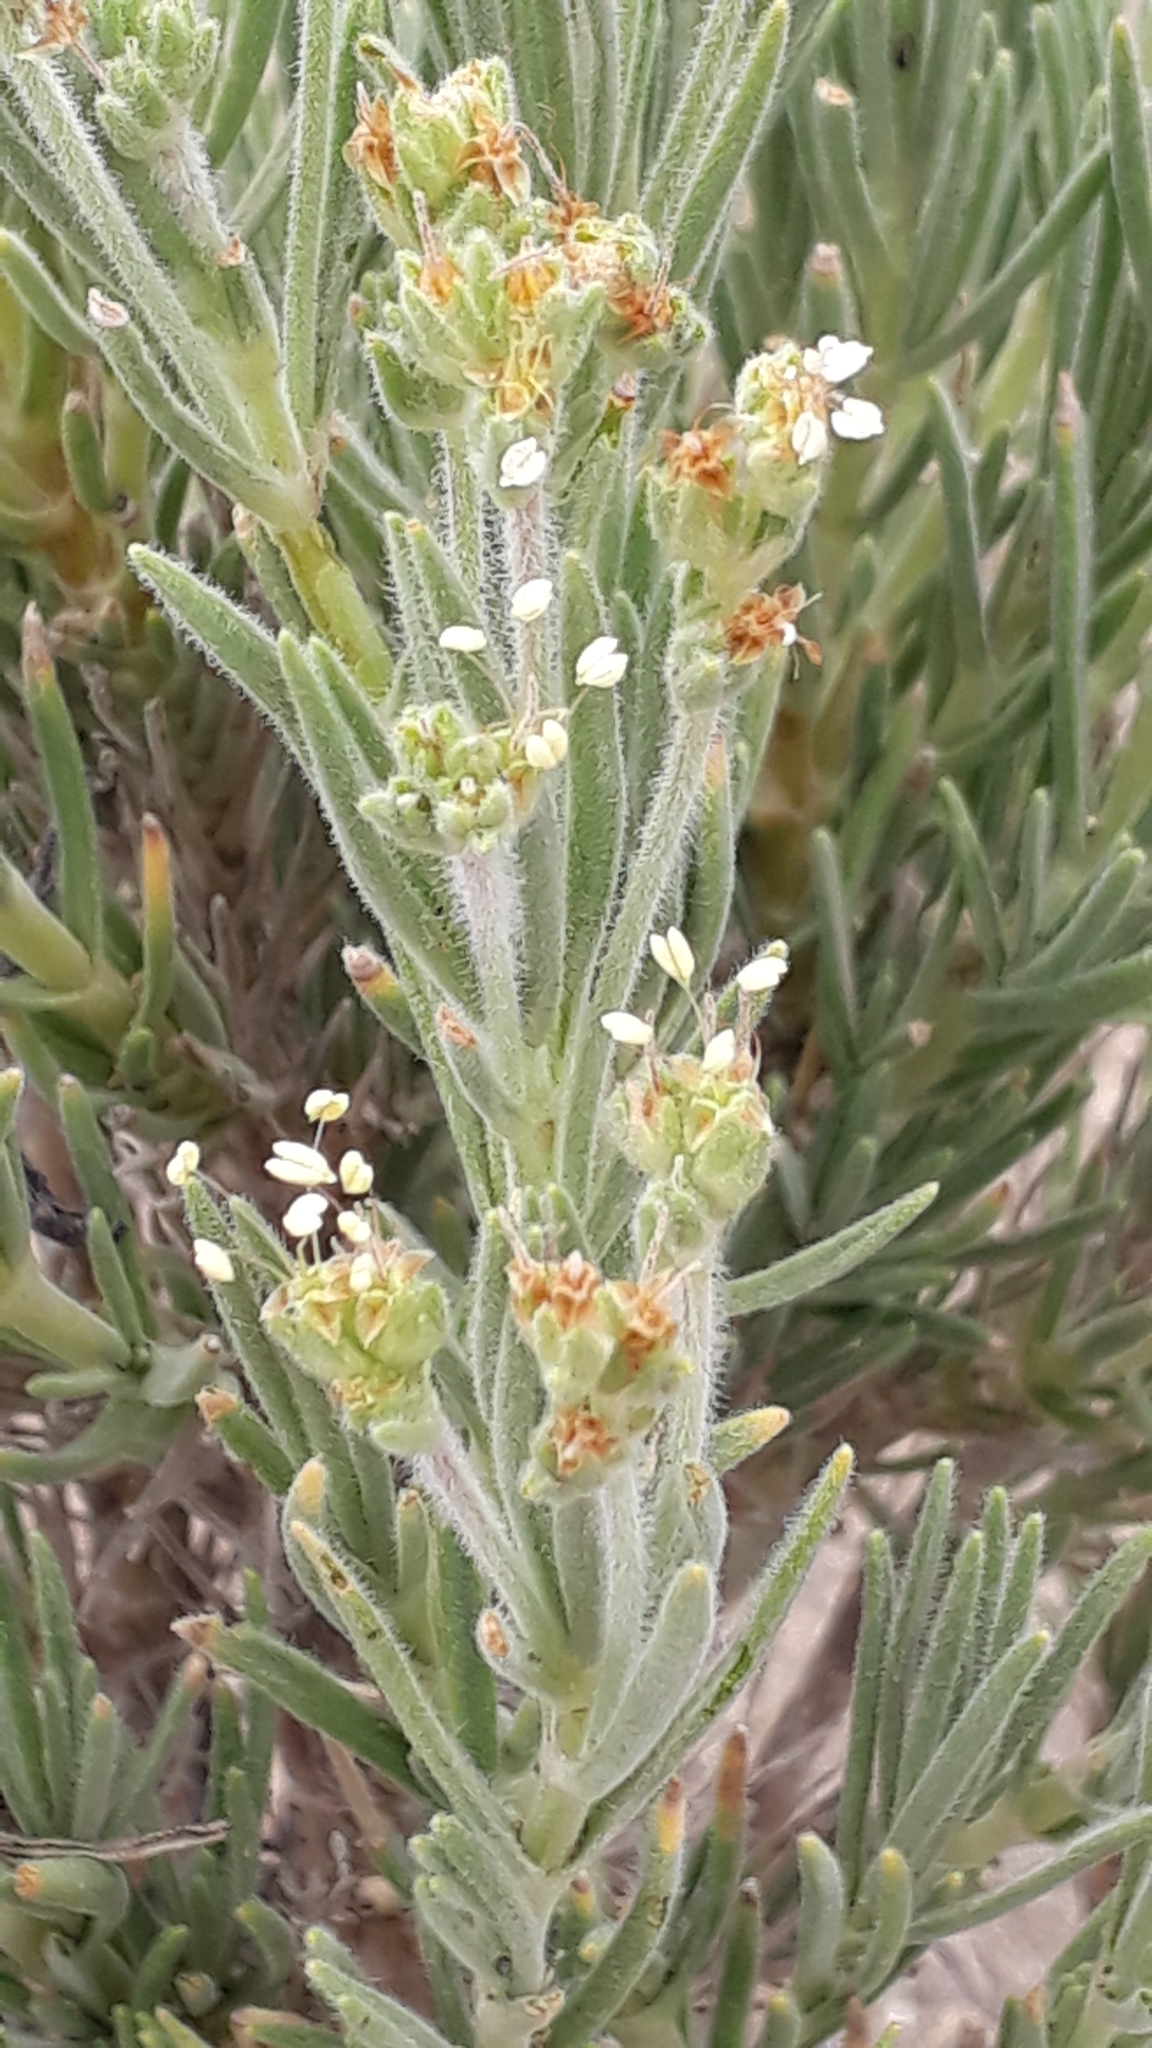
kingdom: Plantae
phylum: Tracheophyta
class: Magnoliopsida
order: Lamiales
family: Plantaginaceae
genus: Plantago
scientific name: Plantago webbii
